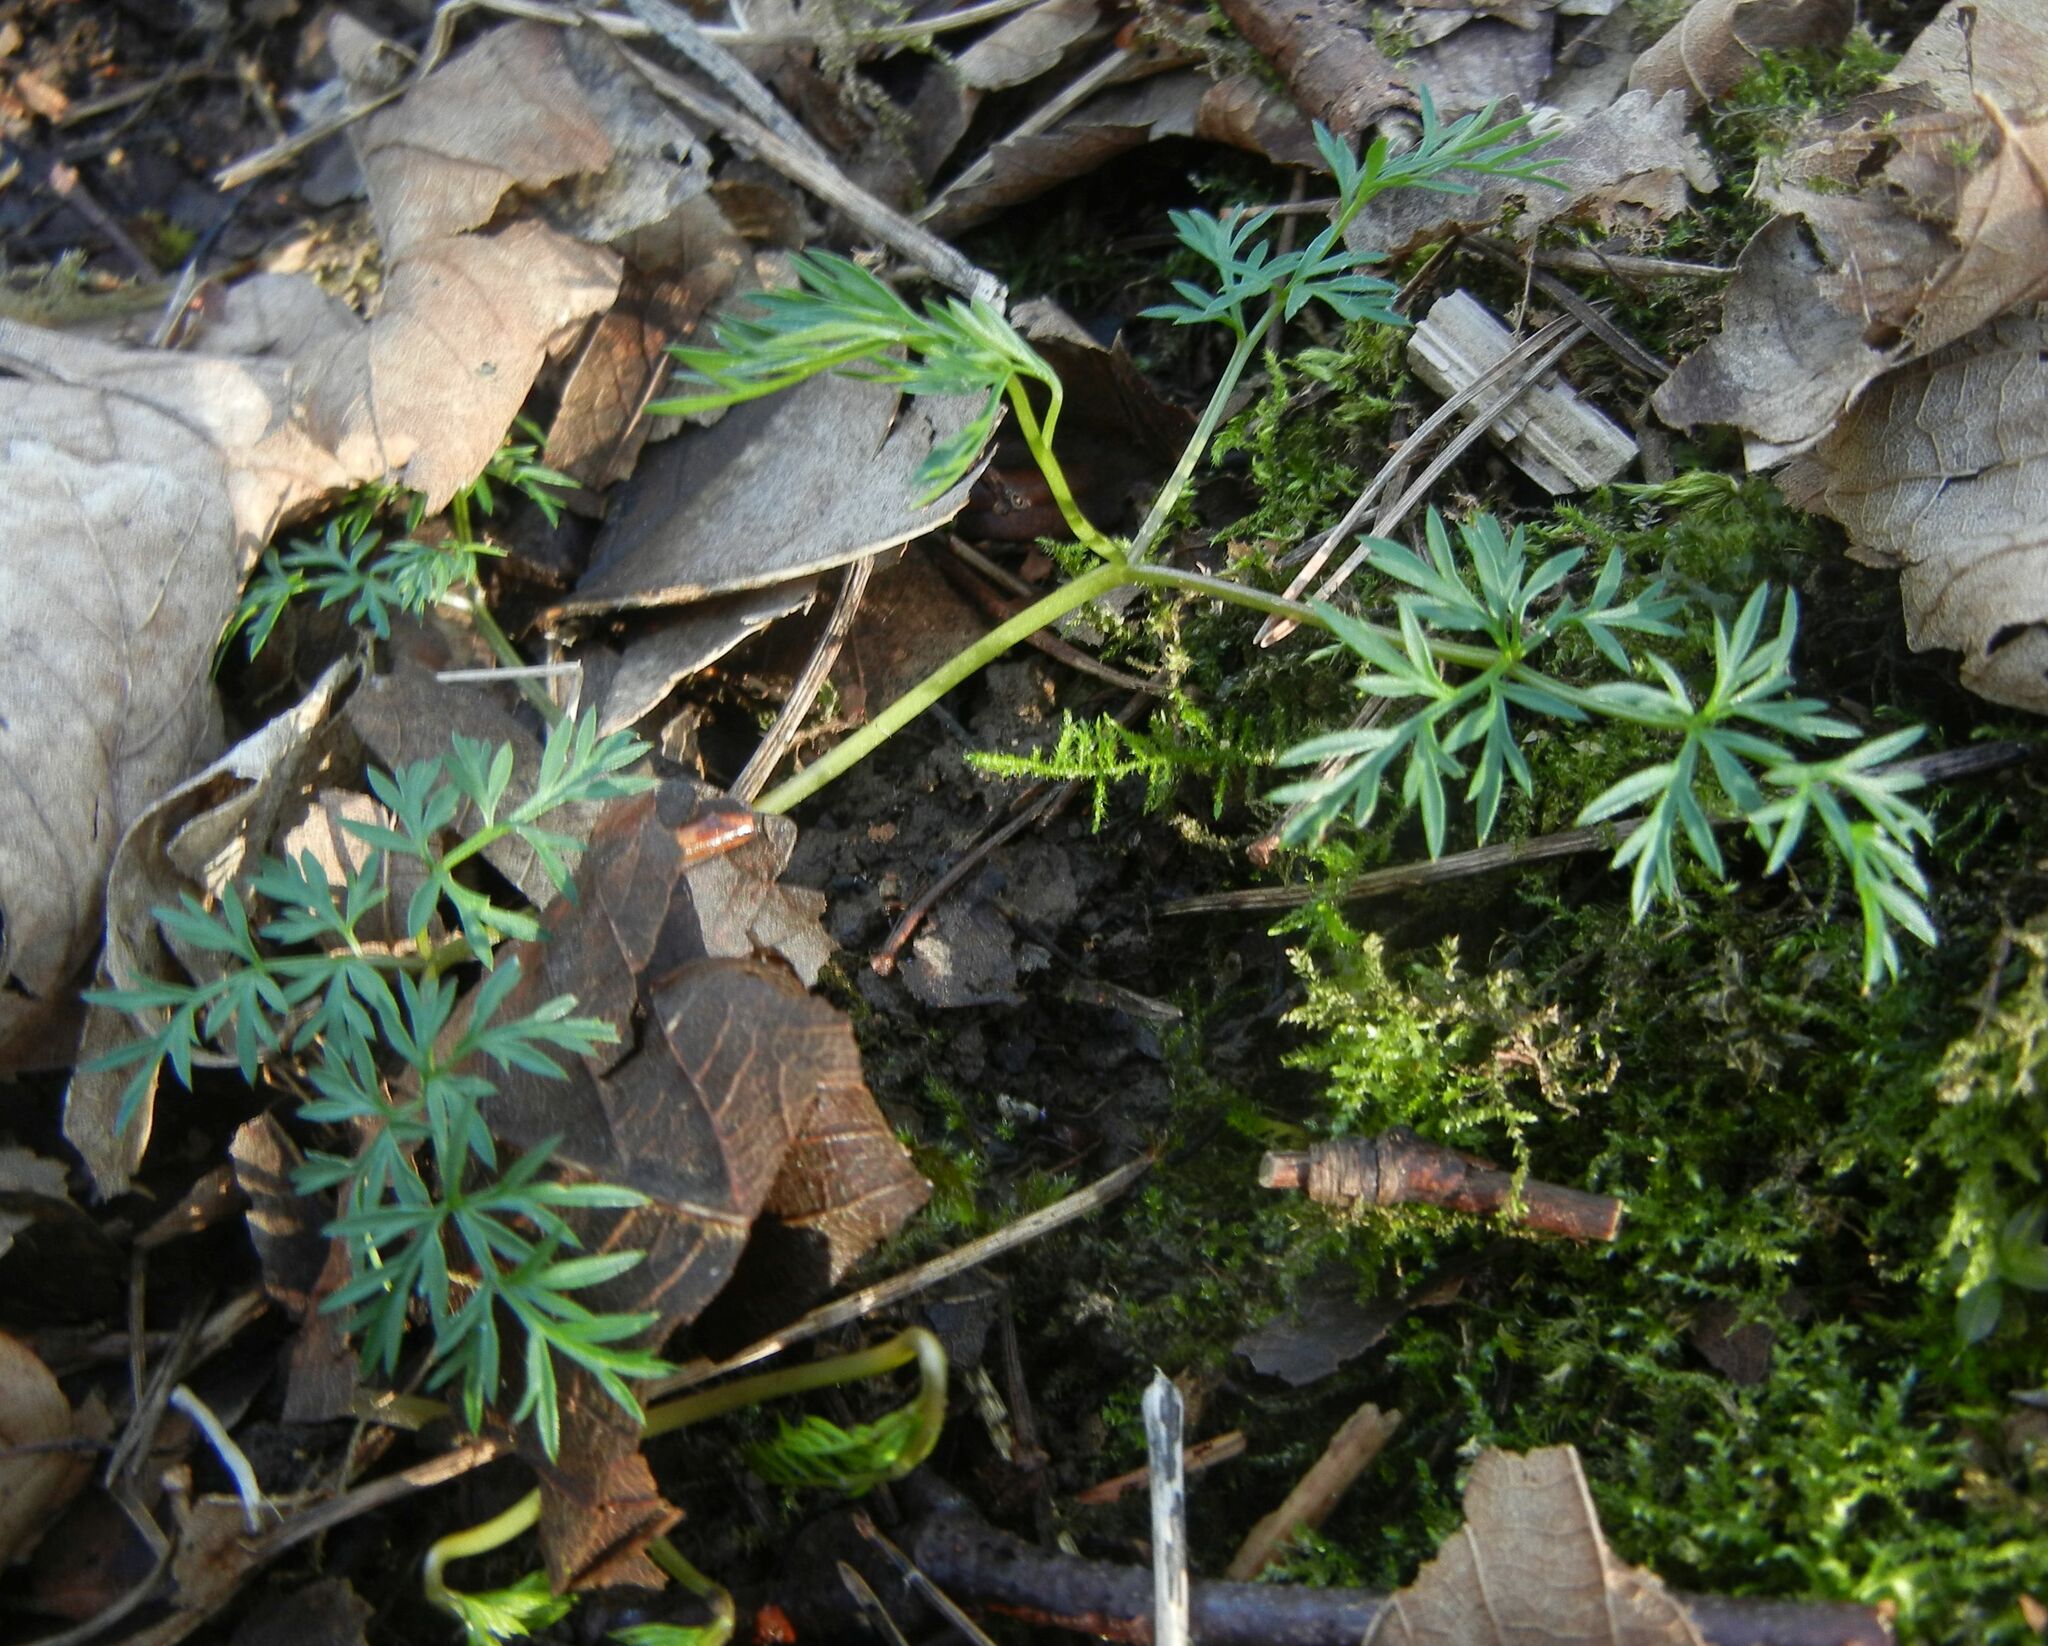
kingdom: Plantae
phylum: Tracheophyta
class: Magnoliopsida
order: Apiales
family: Apiaceae
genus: Conopodium
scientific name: Conopodium majus
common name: Pignut
